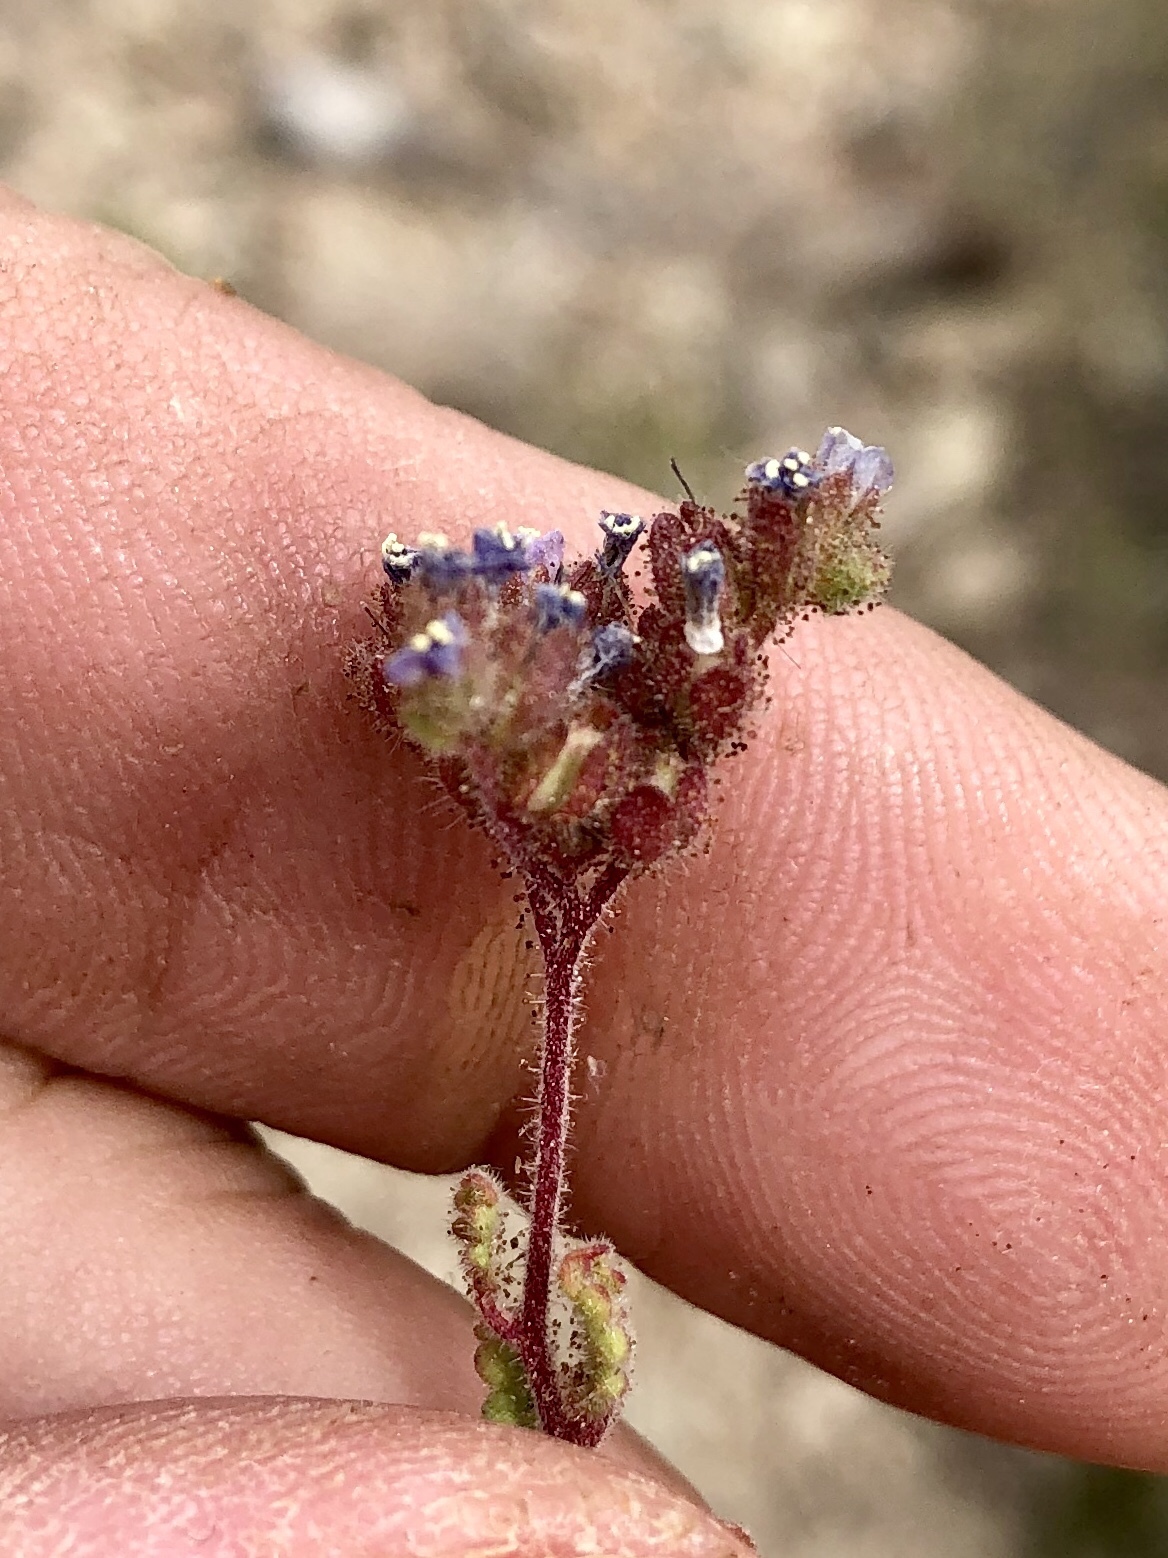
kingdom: Plantae
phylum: Tracheophyta
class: Magnoliopsida
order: Boraginales
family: Hydrophyllaceae
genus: Phacelia
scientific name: Phacelia coerulea
